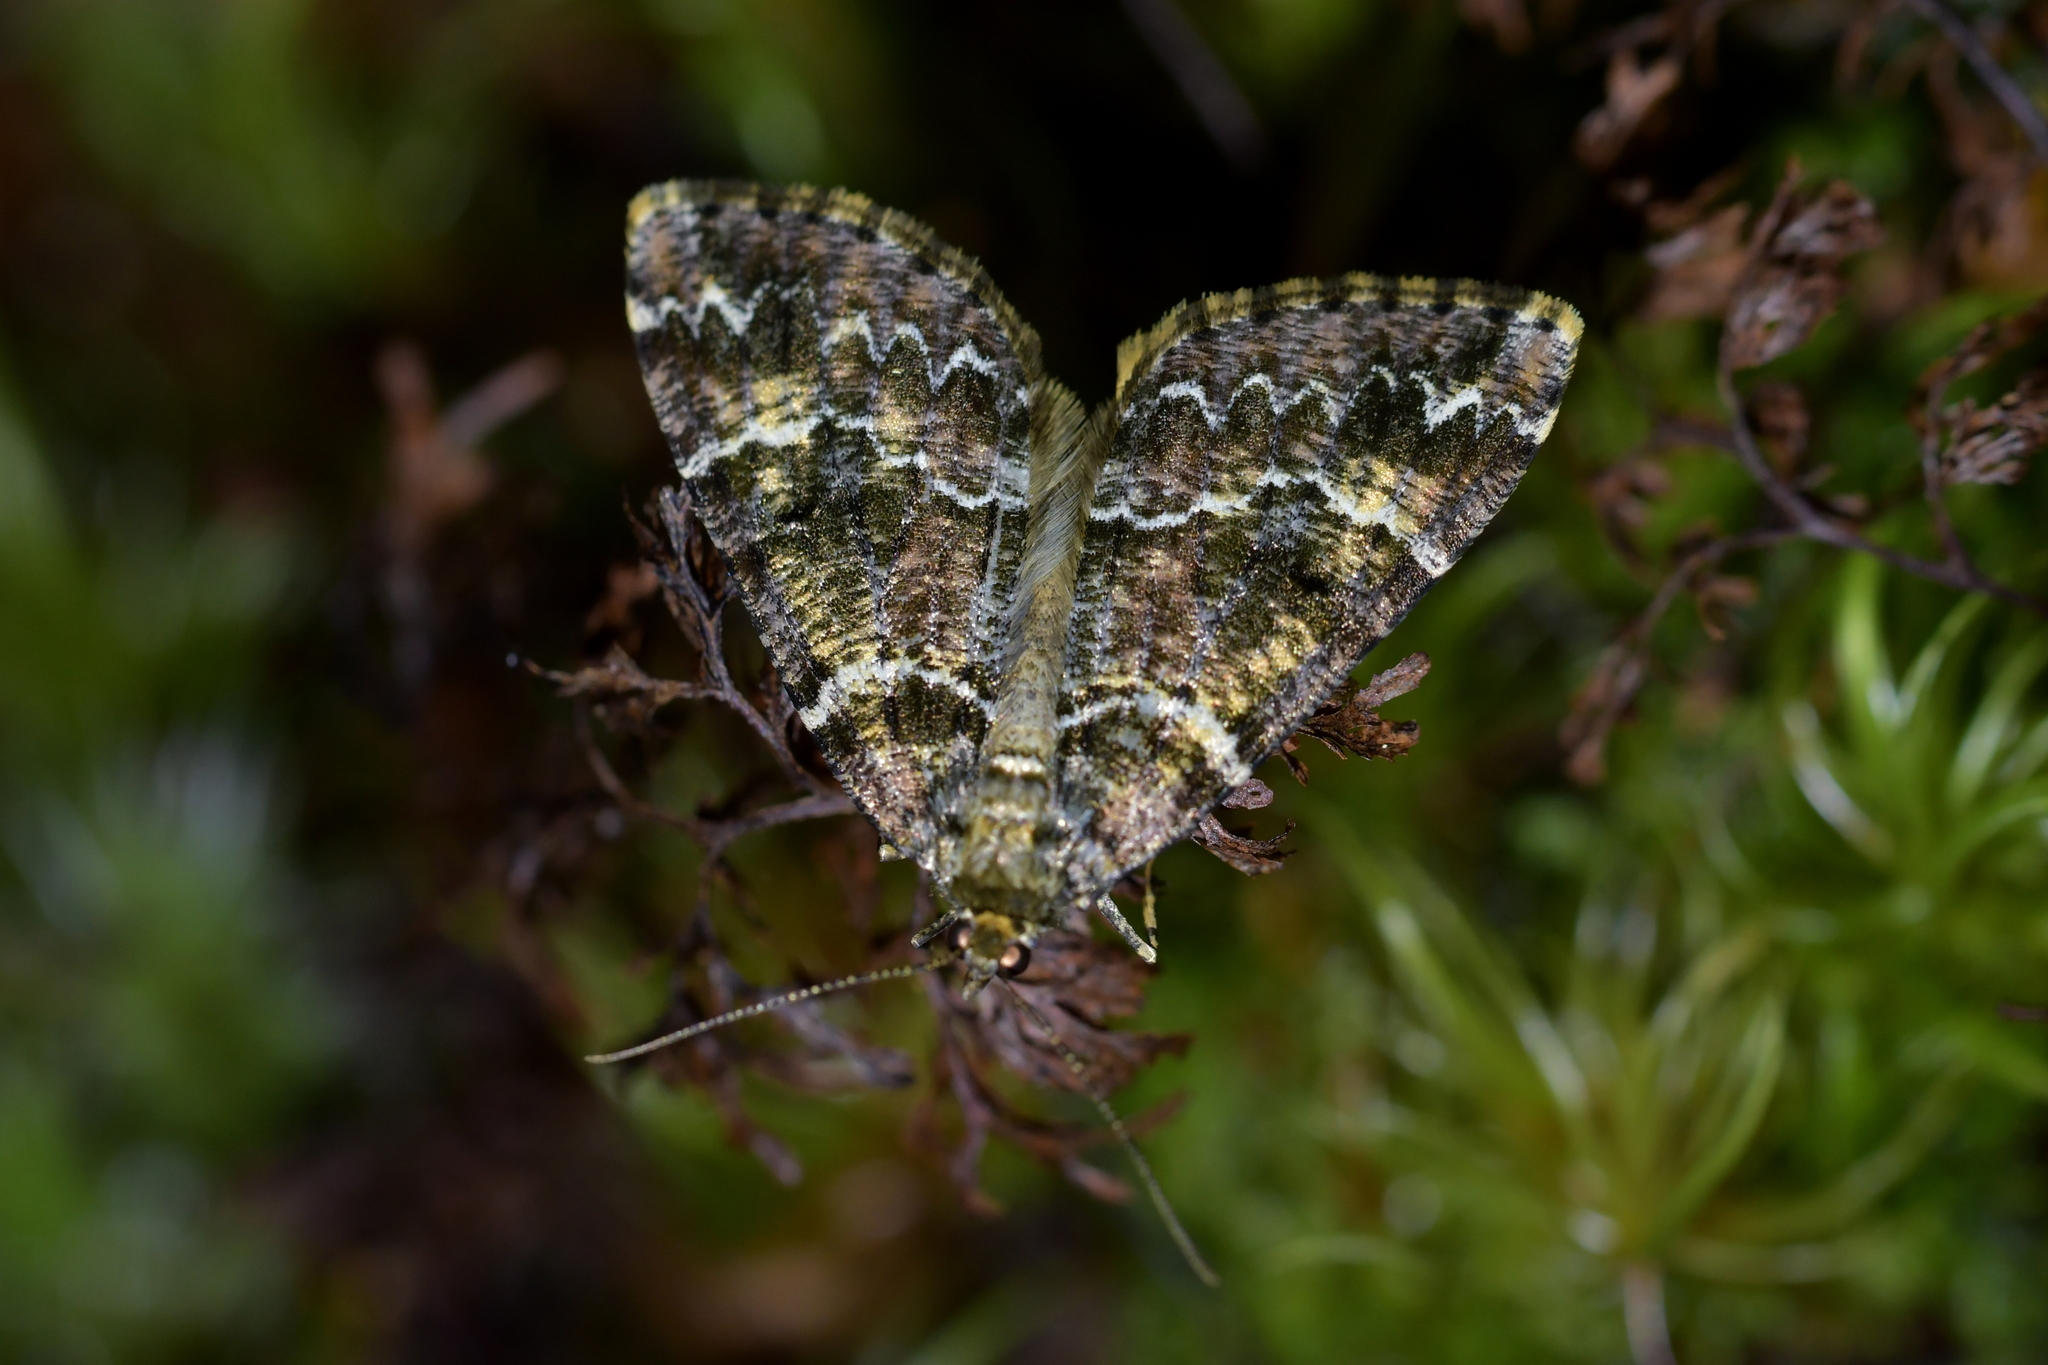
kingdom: Animalia
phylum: Arthropoda
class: Insecta
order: Lepidoptera
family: Geometridae
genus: Pseudocoremia
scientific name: Pseudocoremia productata
